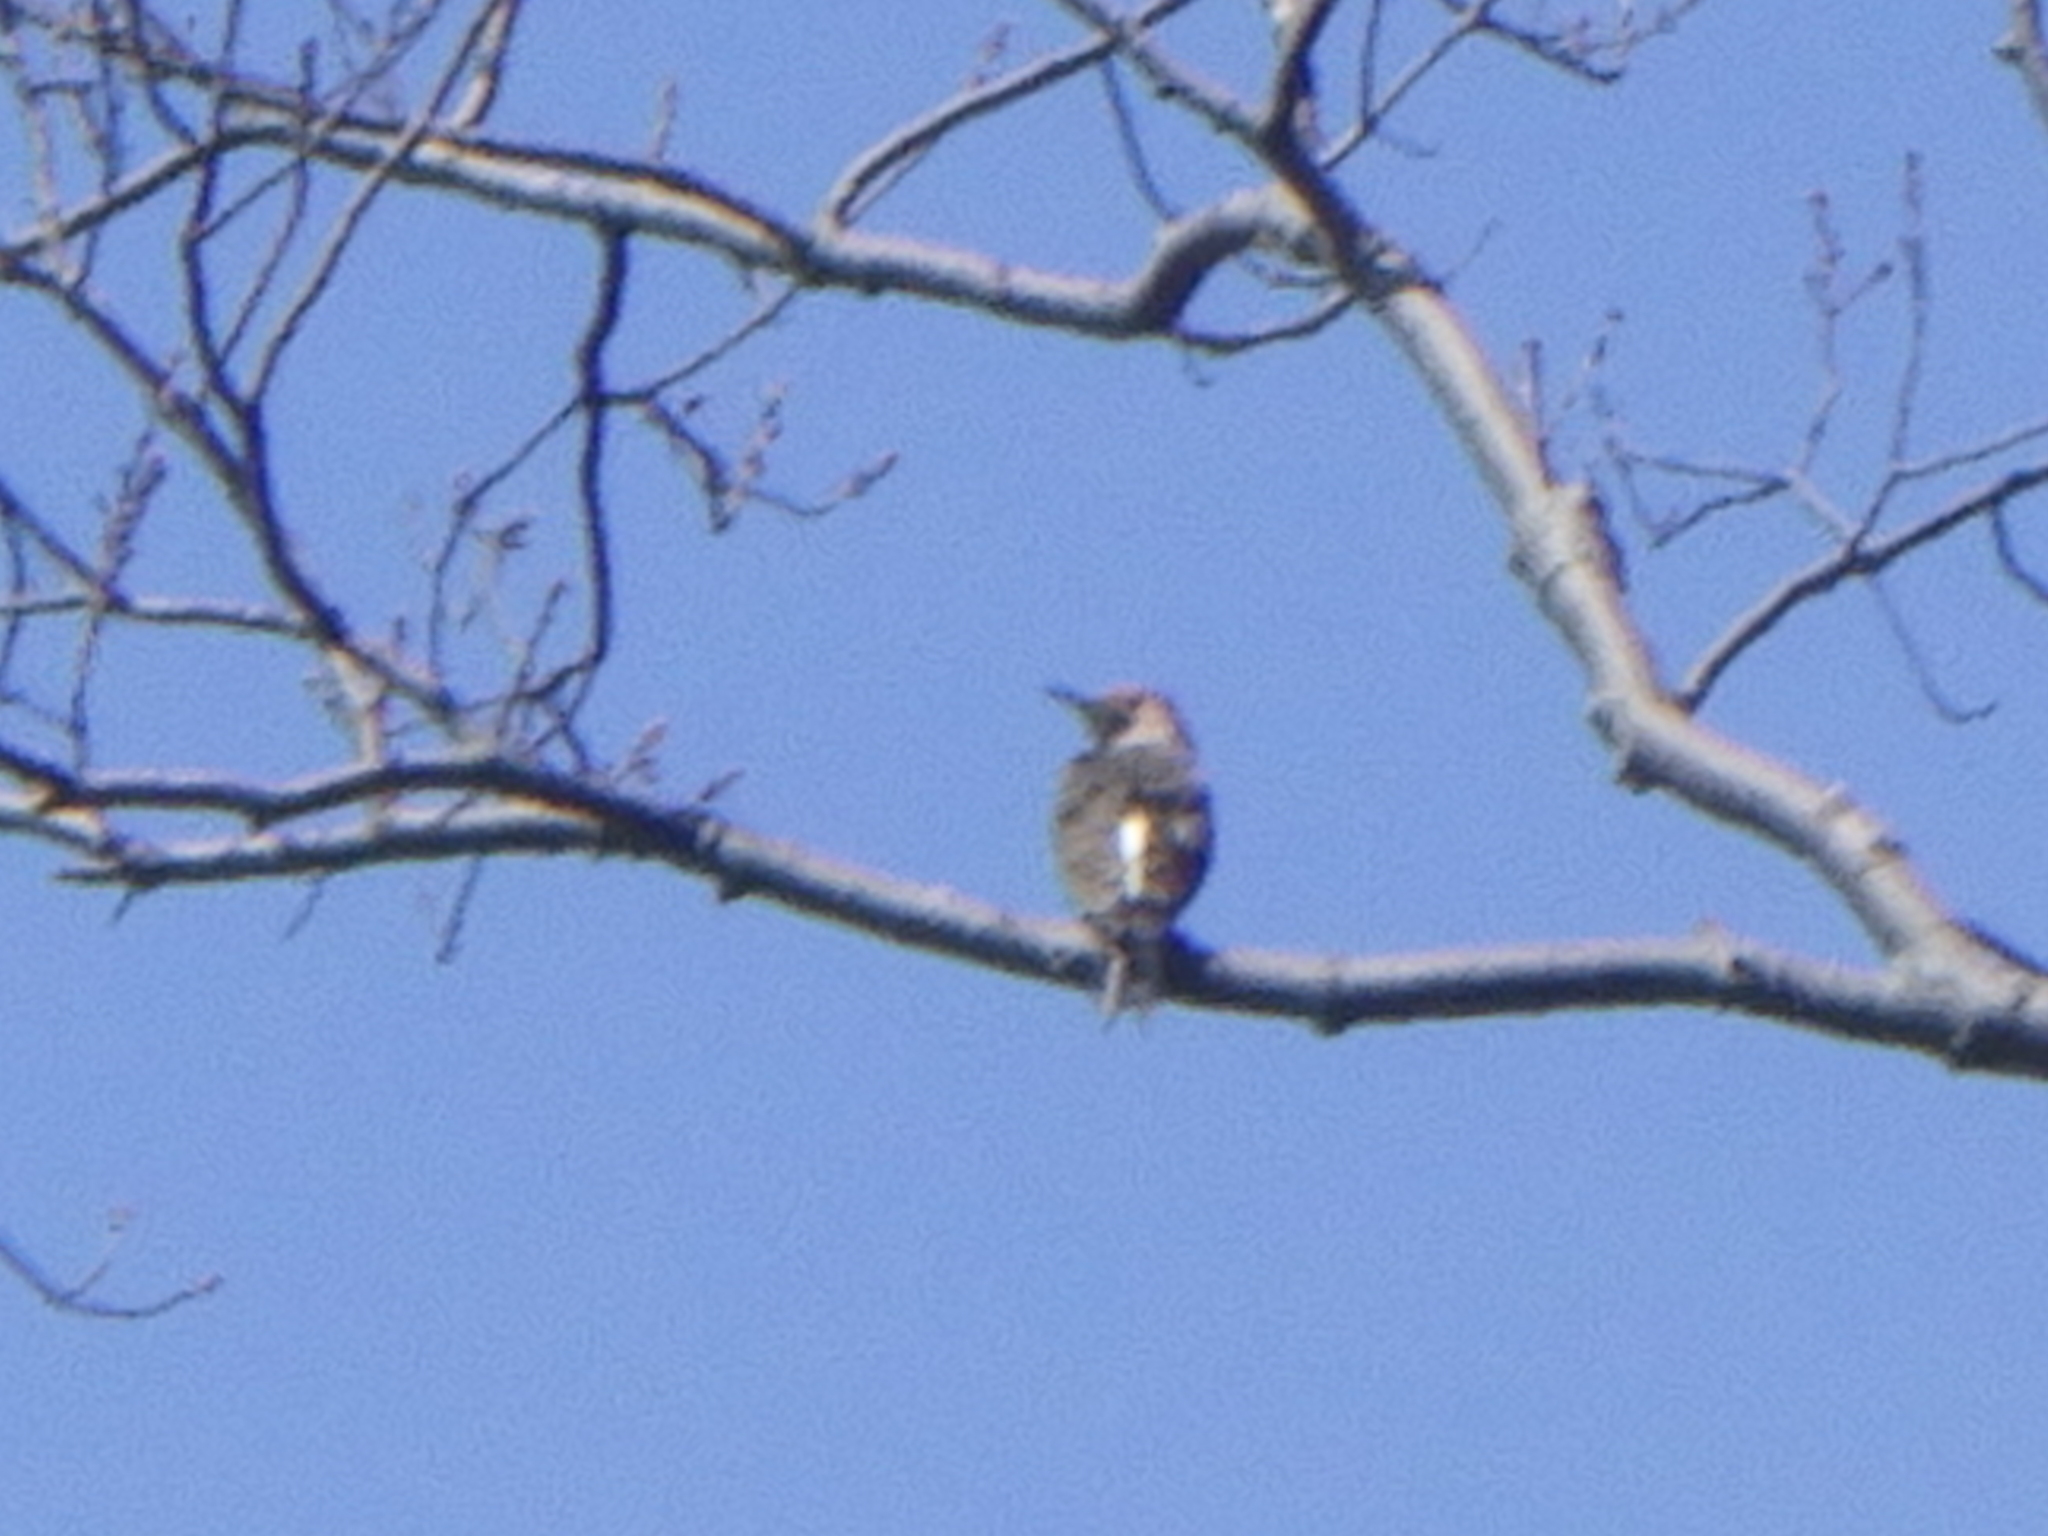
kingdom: Animalia
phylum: Chordata
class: Aves
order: Piciformes
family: Picidae
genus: Colaptes
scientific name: Colaptes auratus
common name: Northern flicker
